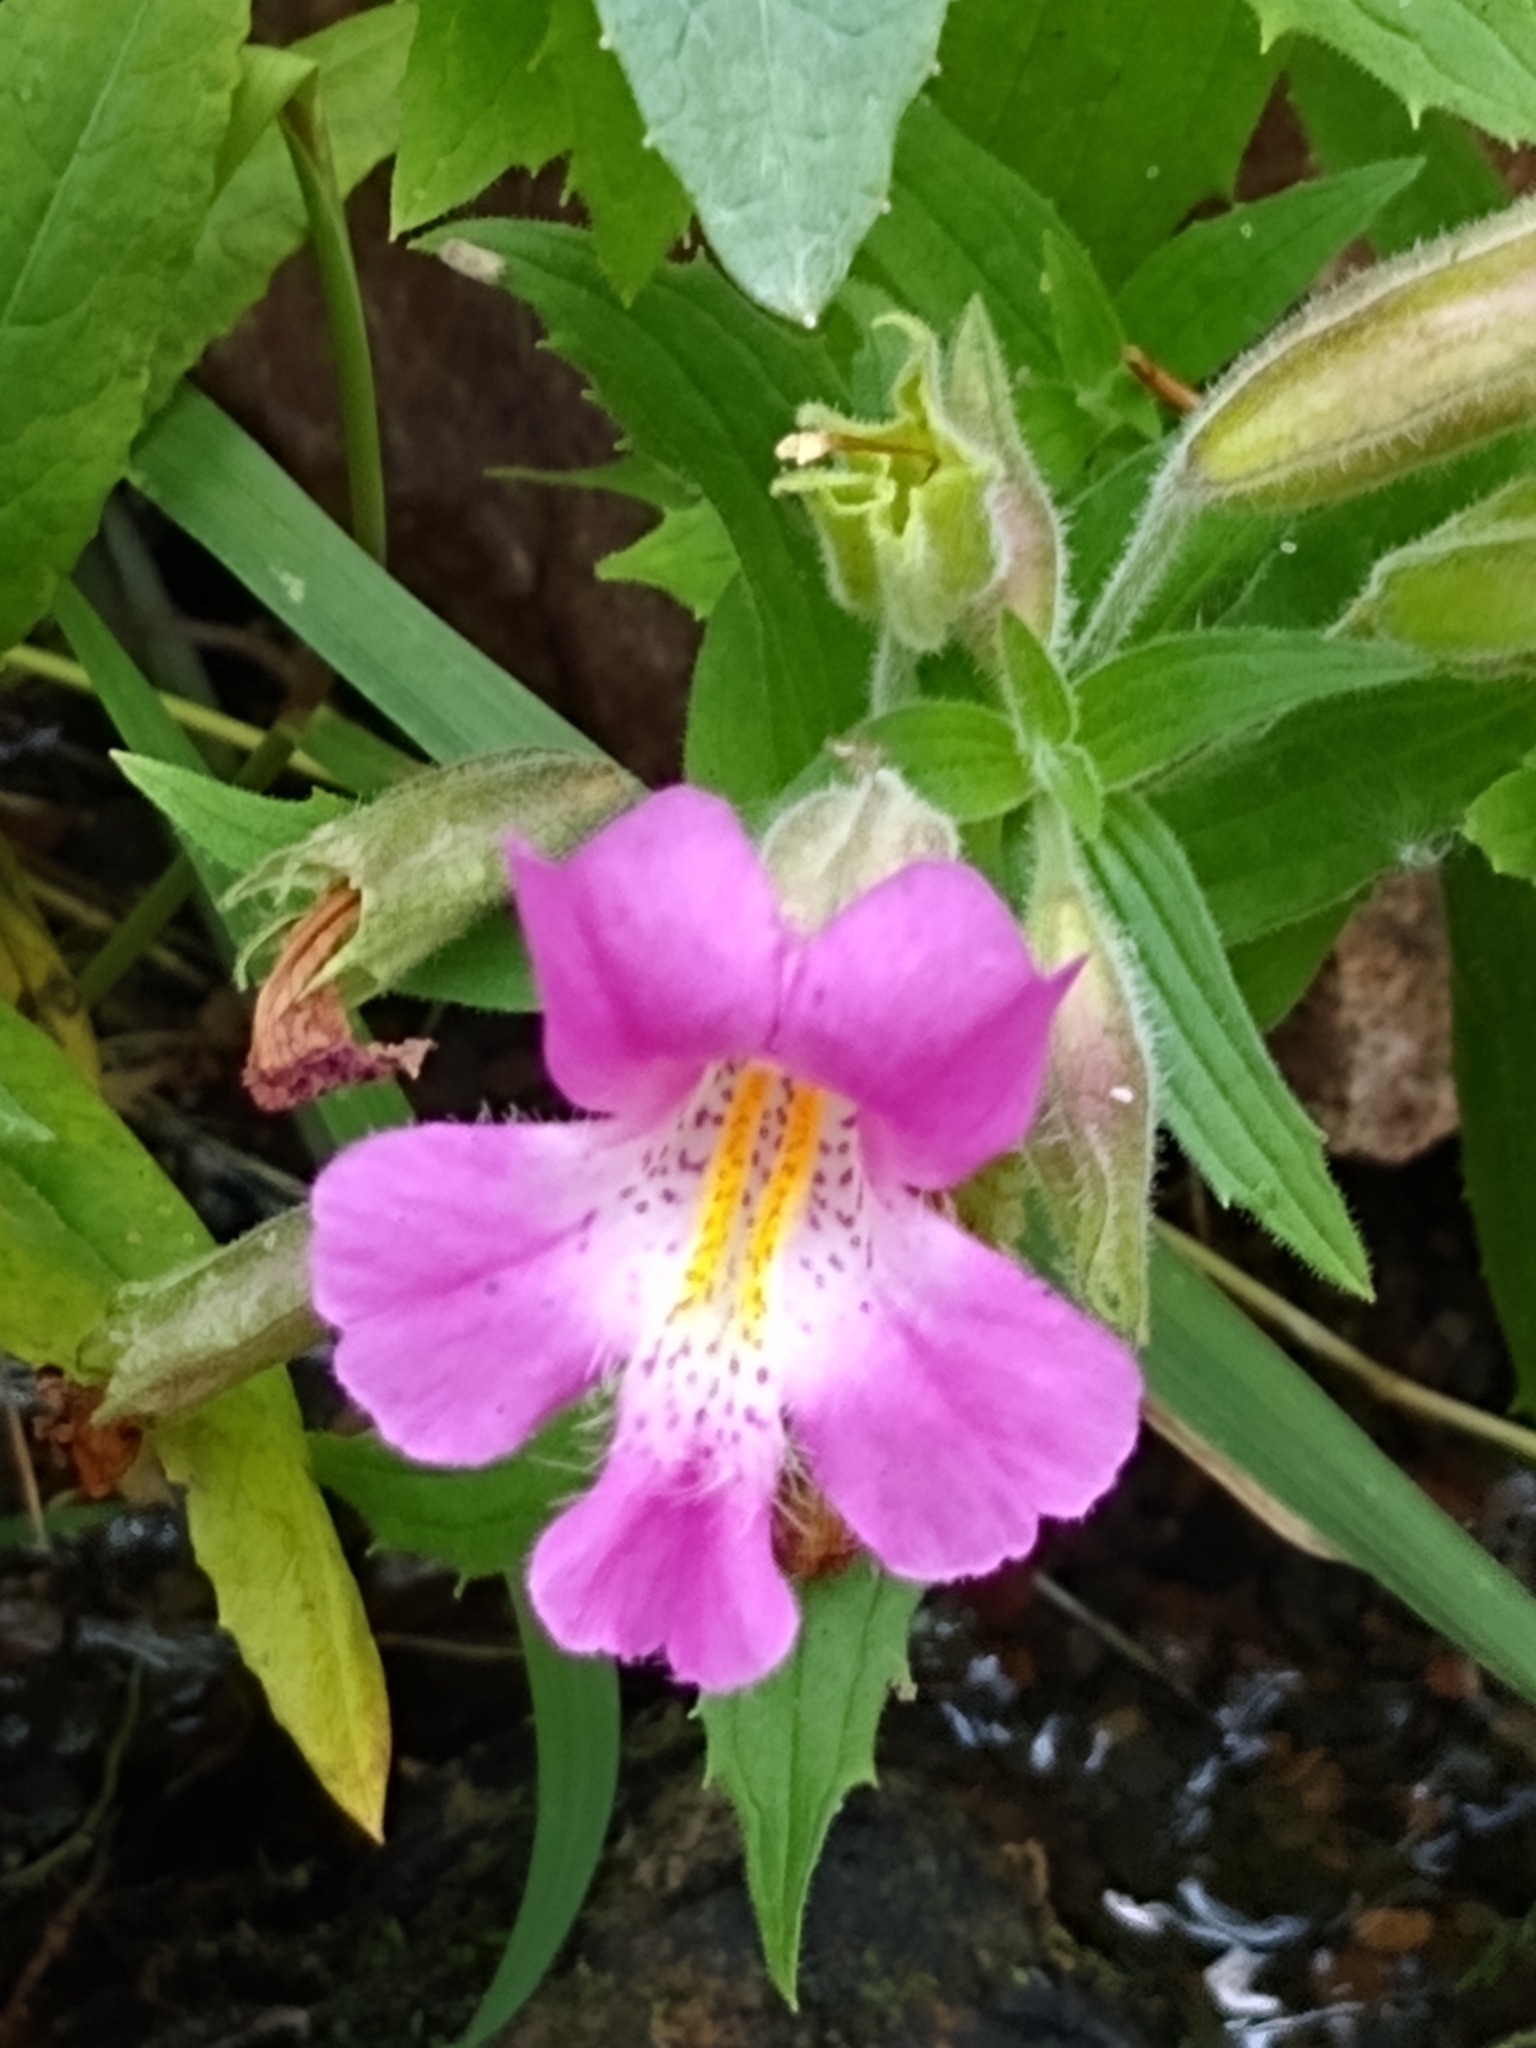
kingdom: Plantae
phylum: Tracheophyta
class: Magnoliopsida
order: Lamiales
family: Phrymaceae
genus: Erythranthe
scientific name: Erythranthe lewisii
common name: Lewis's monkey-flower
